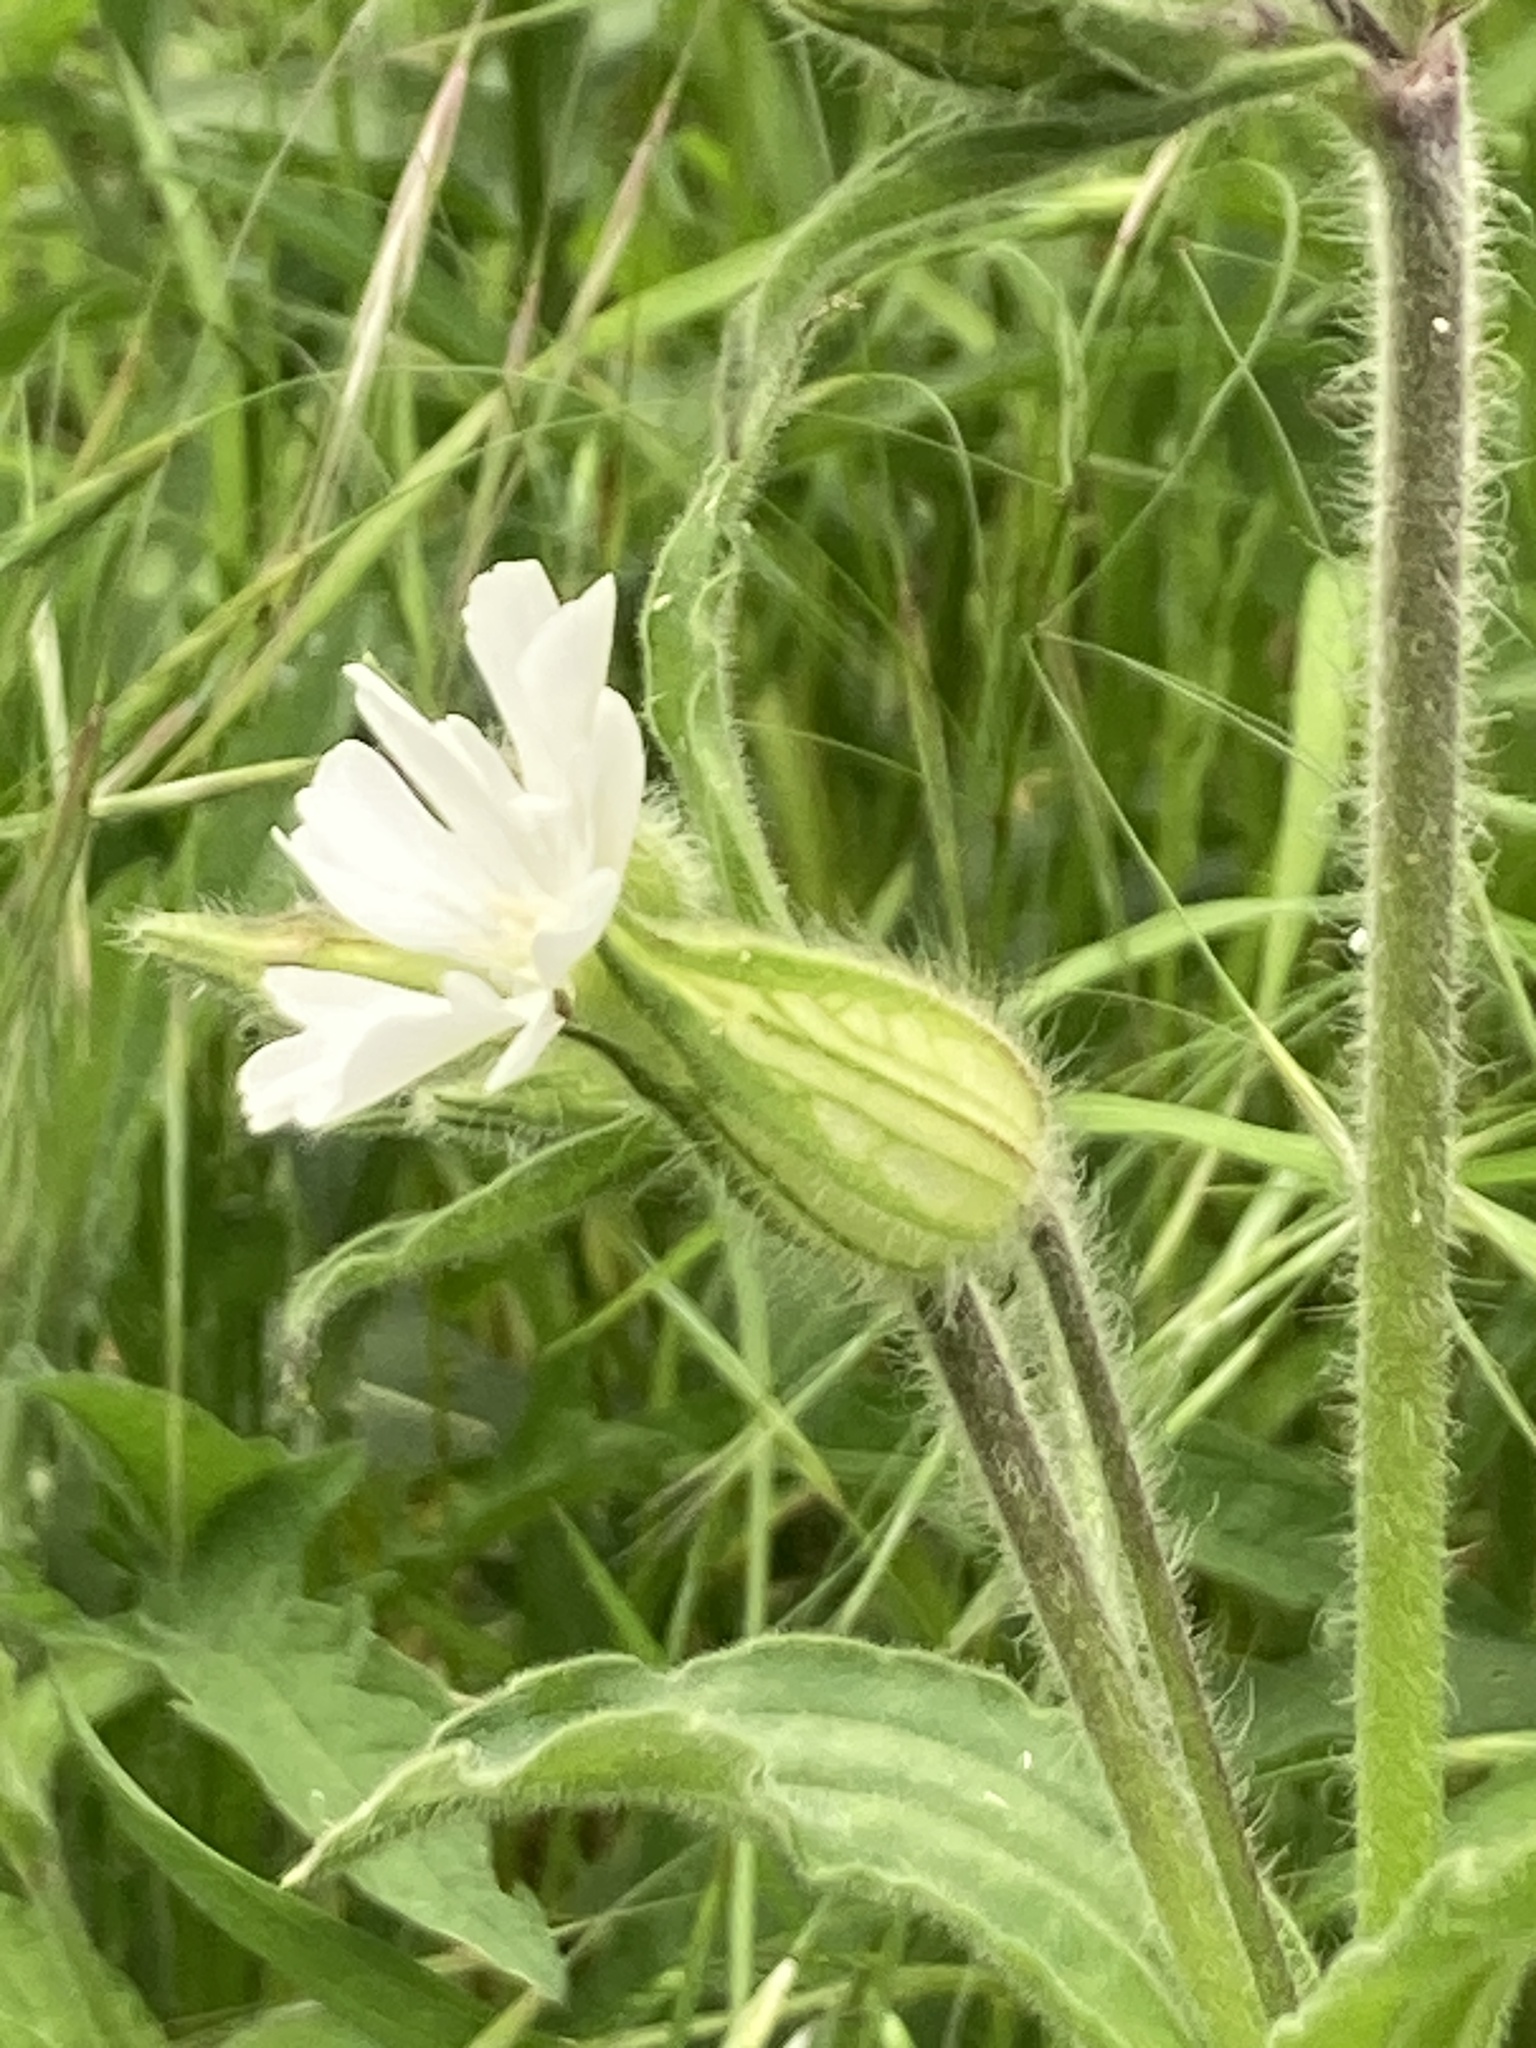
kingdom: Plantae
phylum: Tracheophyta
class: Magnoliopsida
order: Caryophyllales
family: Caryophyllaceae
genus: Silene
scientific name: Silene latifolia
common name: White campion
